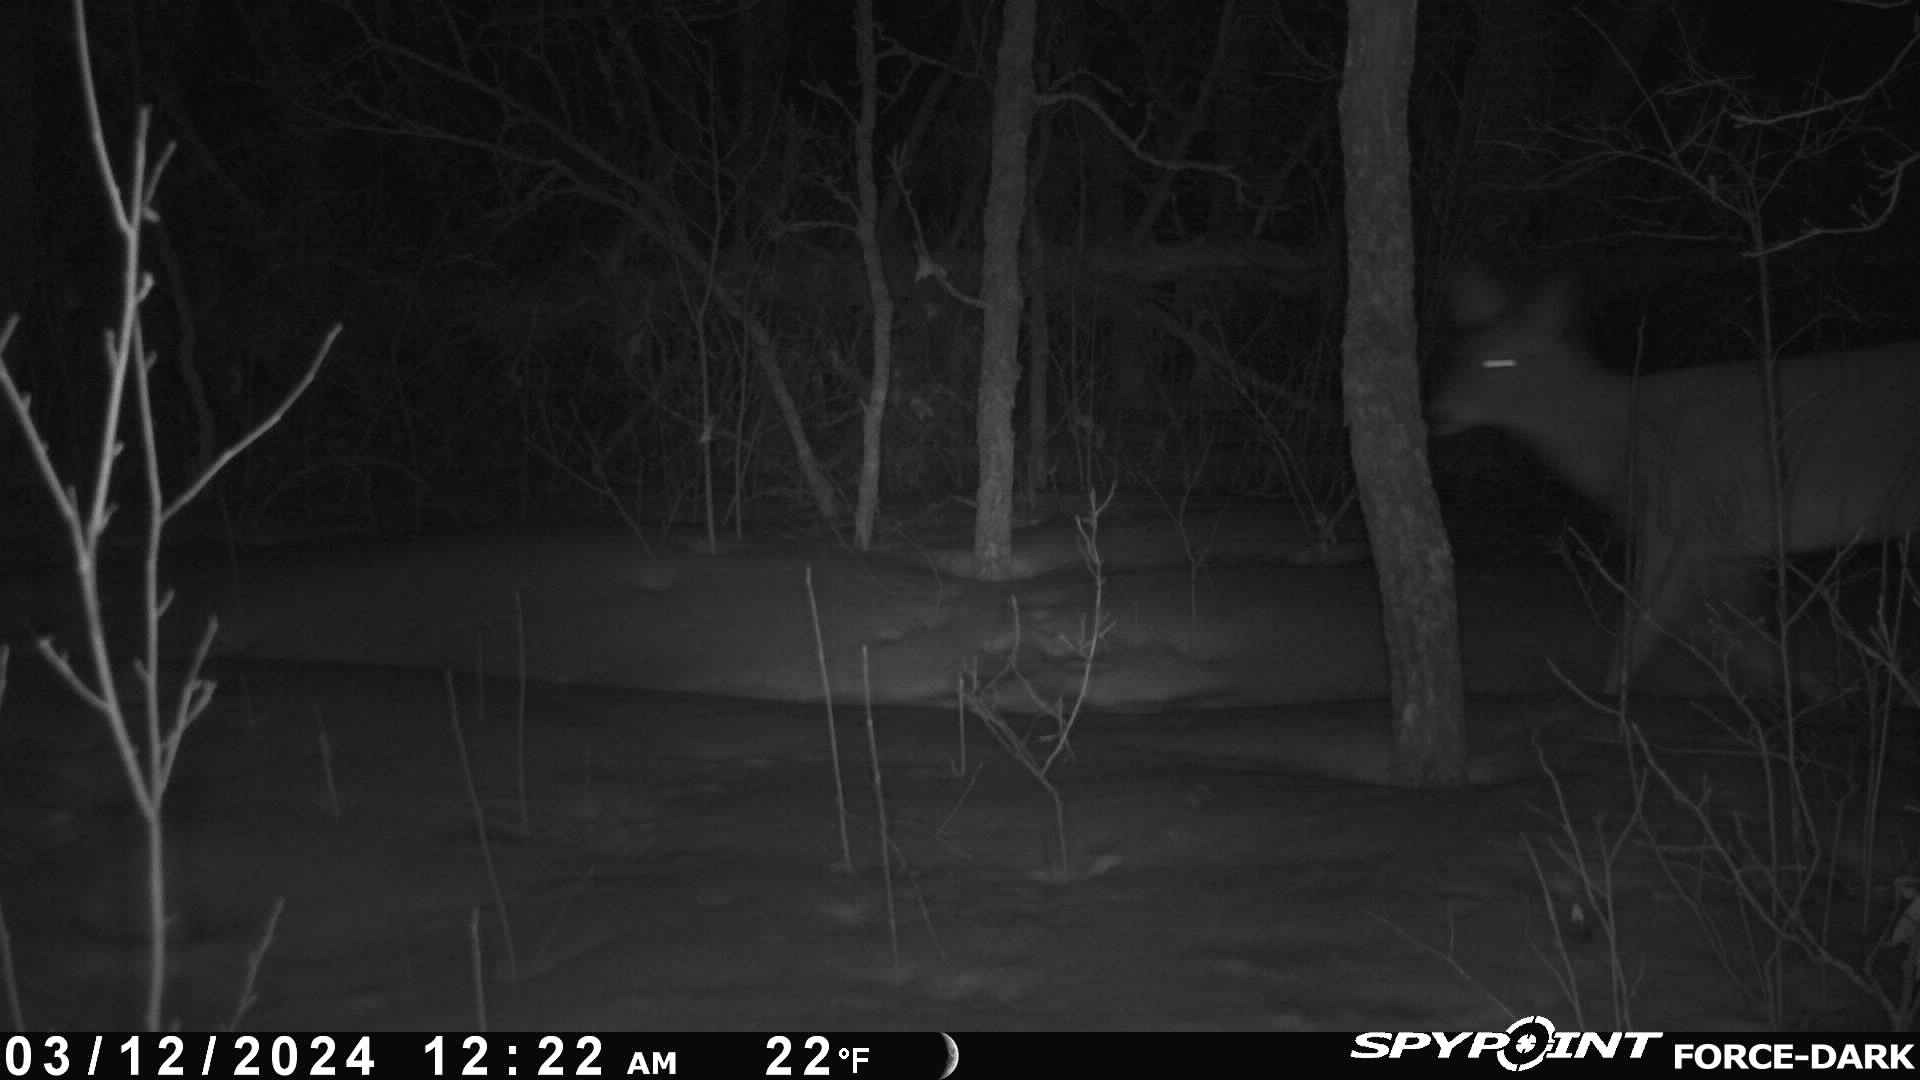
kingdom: Animalia
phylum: Chordata
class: Mammalia
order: Artiodactyla
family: Cervidae
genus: Odocoileus
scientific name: Odocoileus virginianus
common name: White-tailed deer
